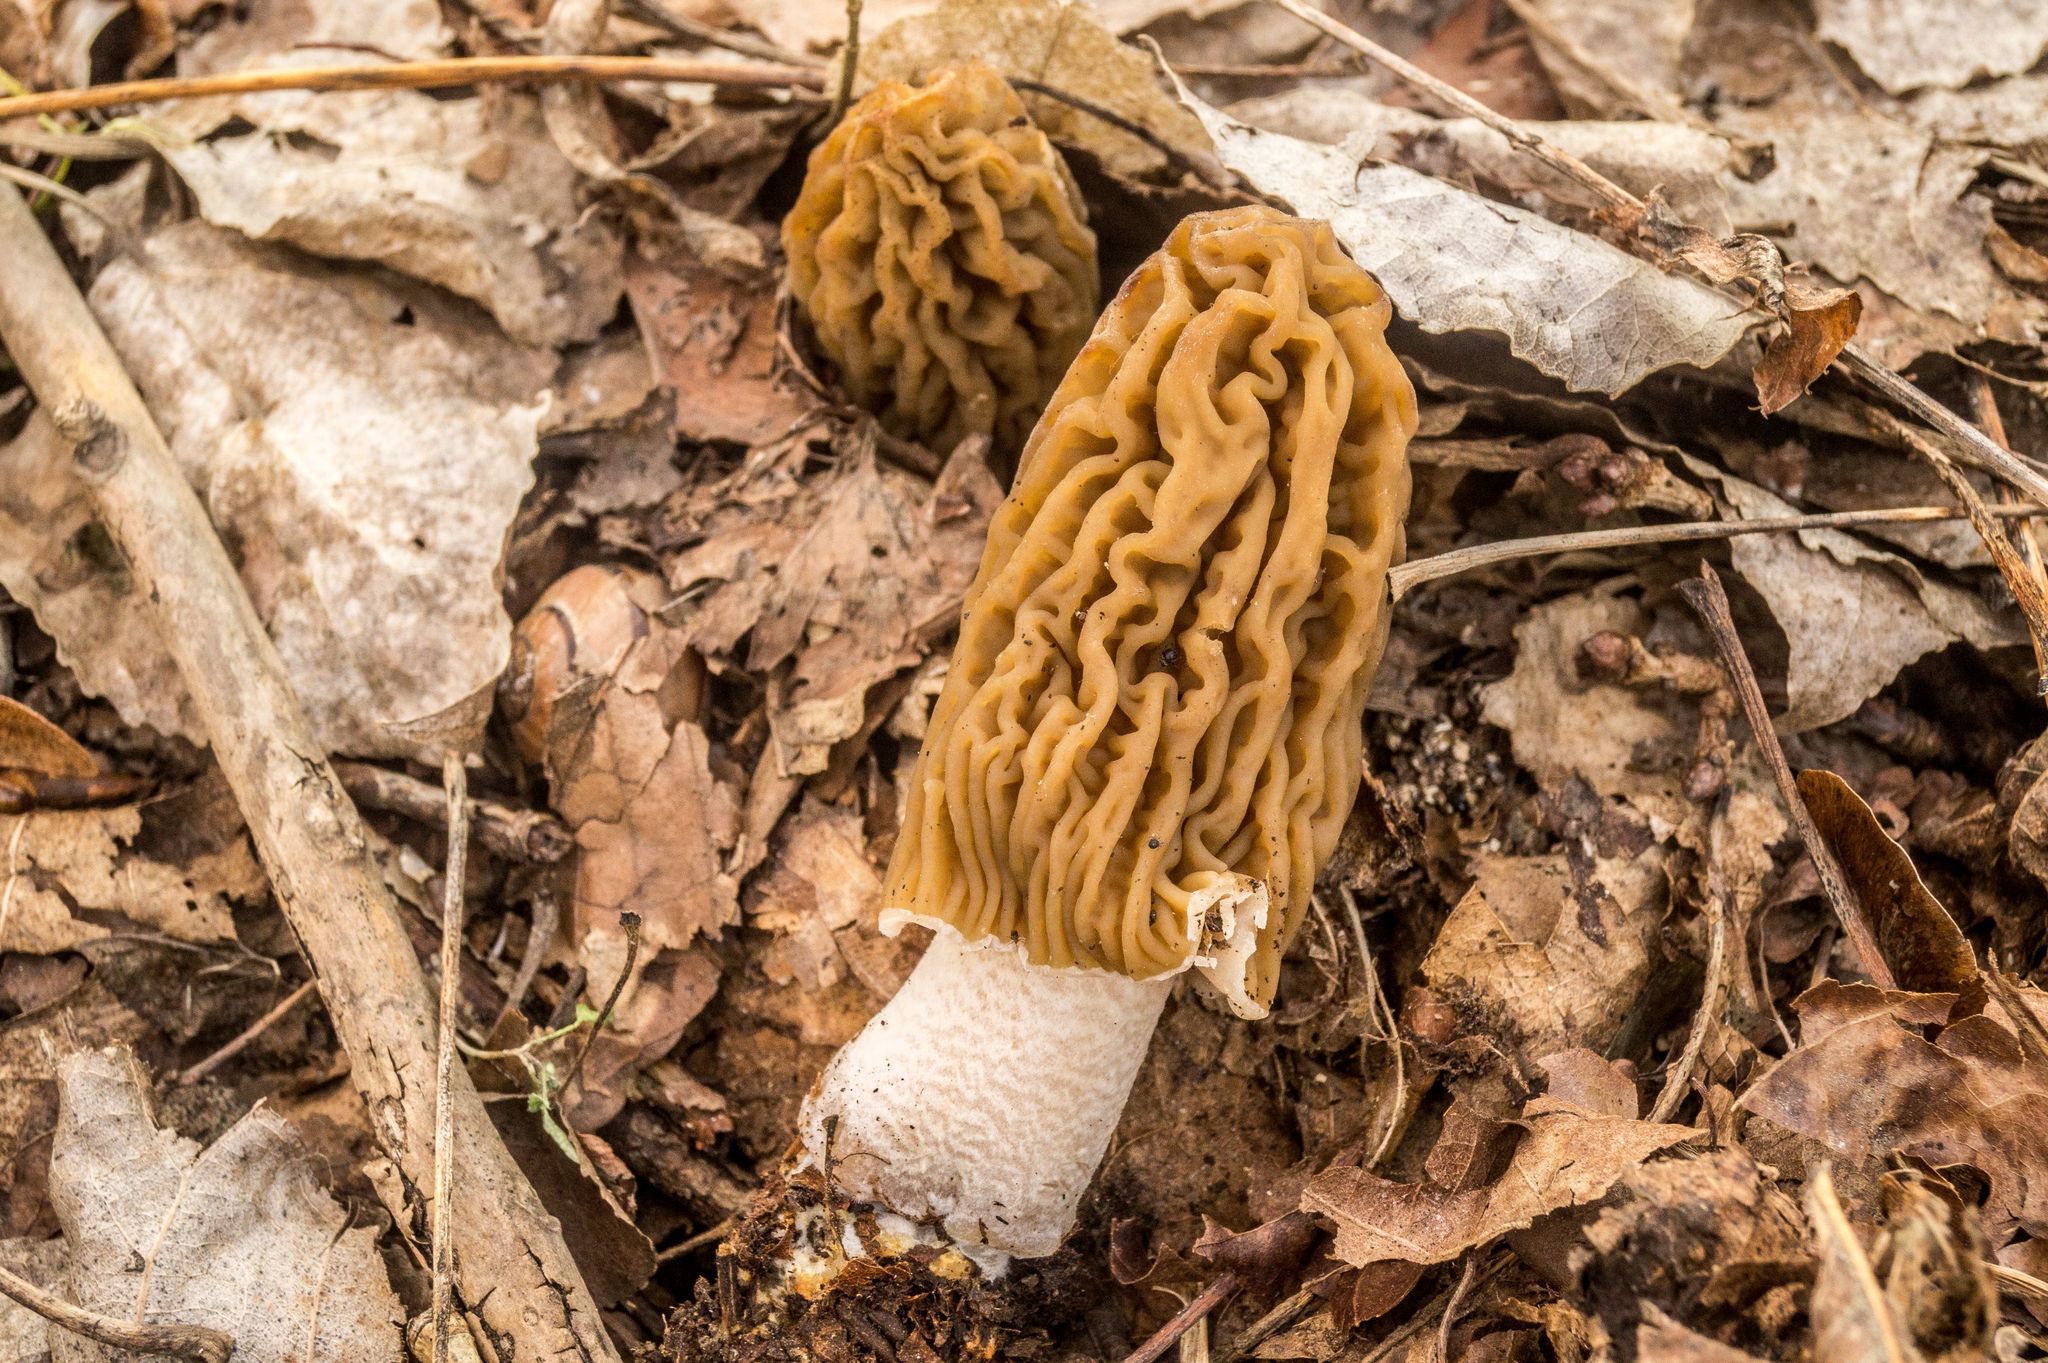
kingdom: Fungi
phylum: Ascomycota
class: Pezizomycetes
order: Pezizales
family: Morchellaceae
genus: Verpa
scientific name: Verpa bohemica
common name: Wrinkled thimble morel
